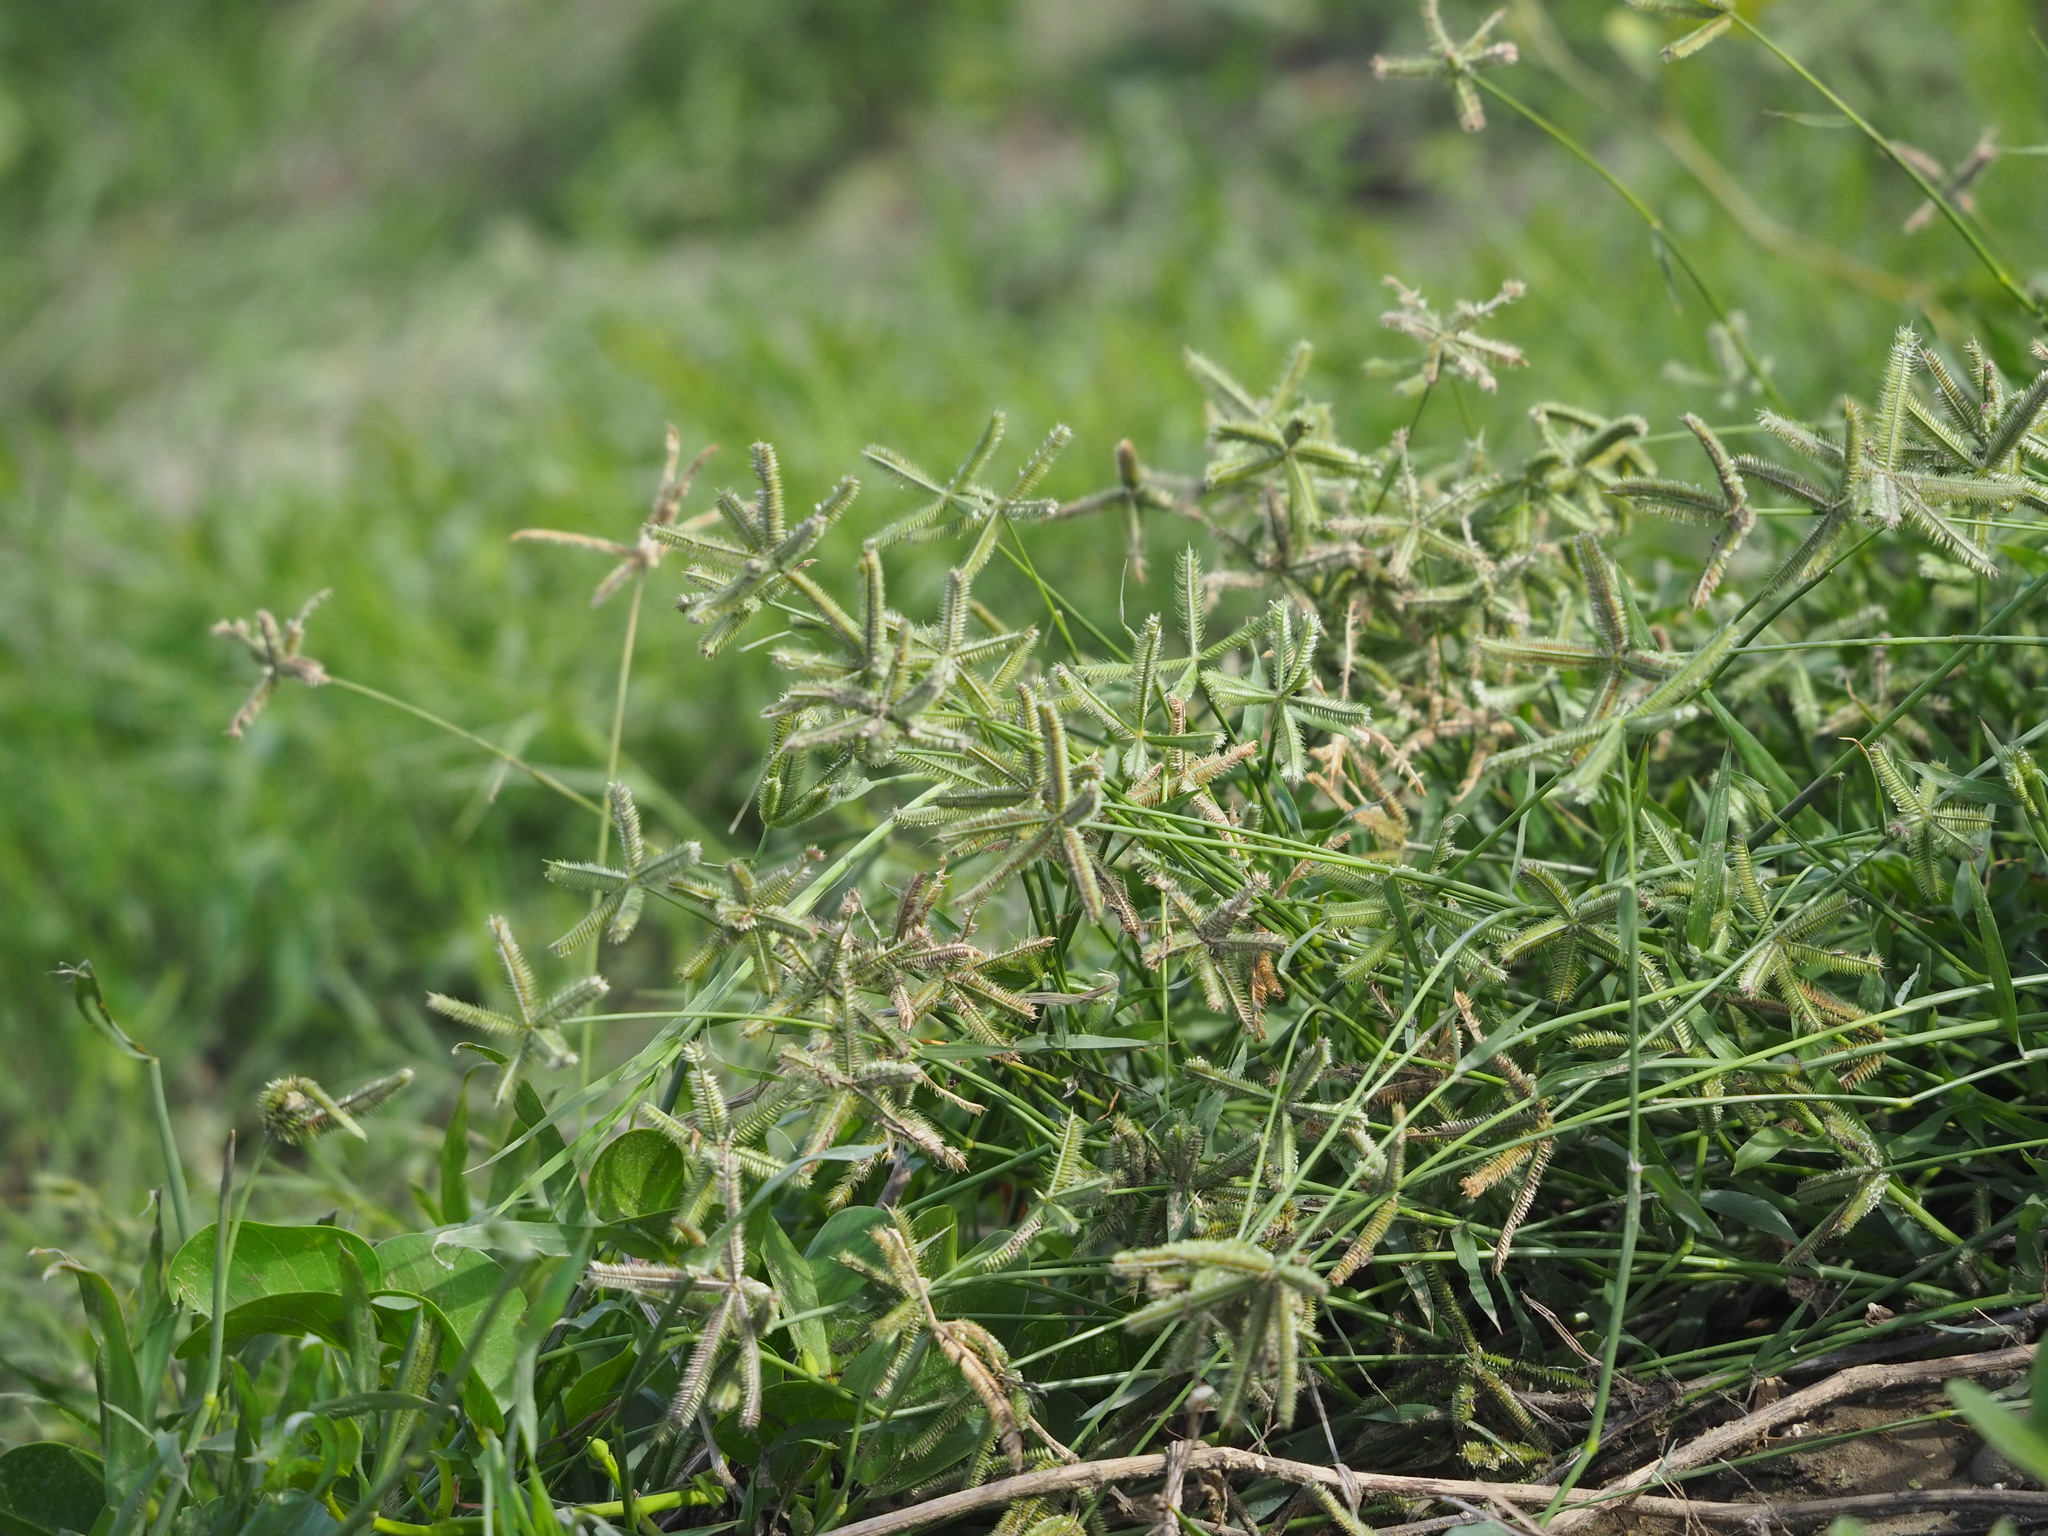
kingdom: Plantae
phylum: Tracheophyta
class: Liliopsida
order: Poales
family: Poaceae
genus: Dactyloctenium
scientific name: Dactyloctenium aegyptium
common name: Egyptian grass
